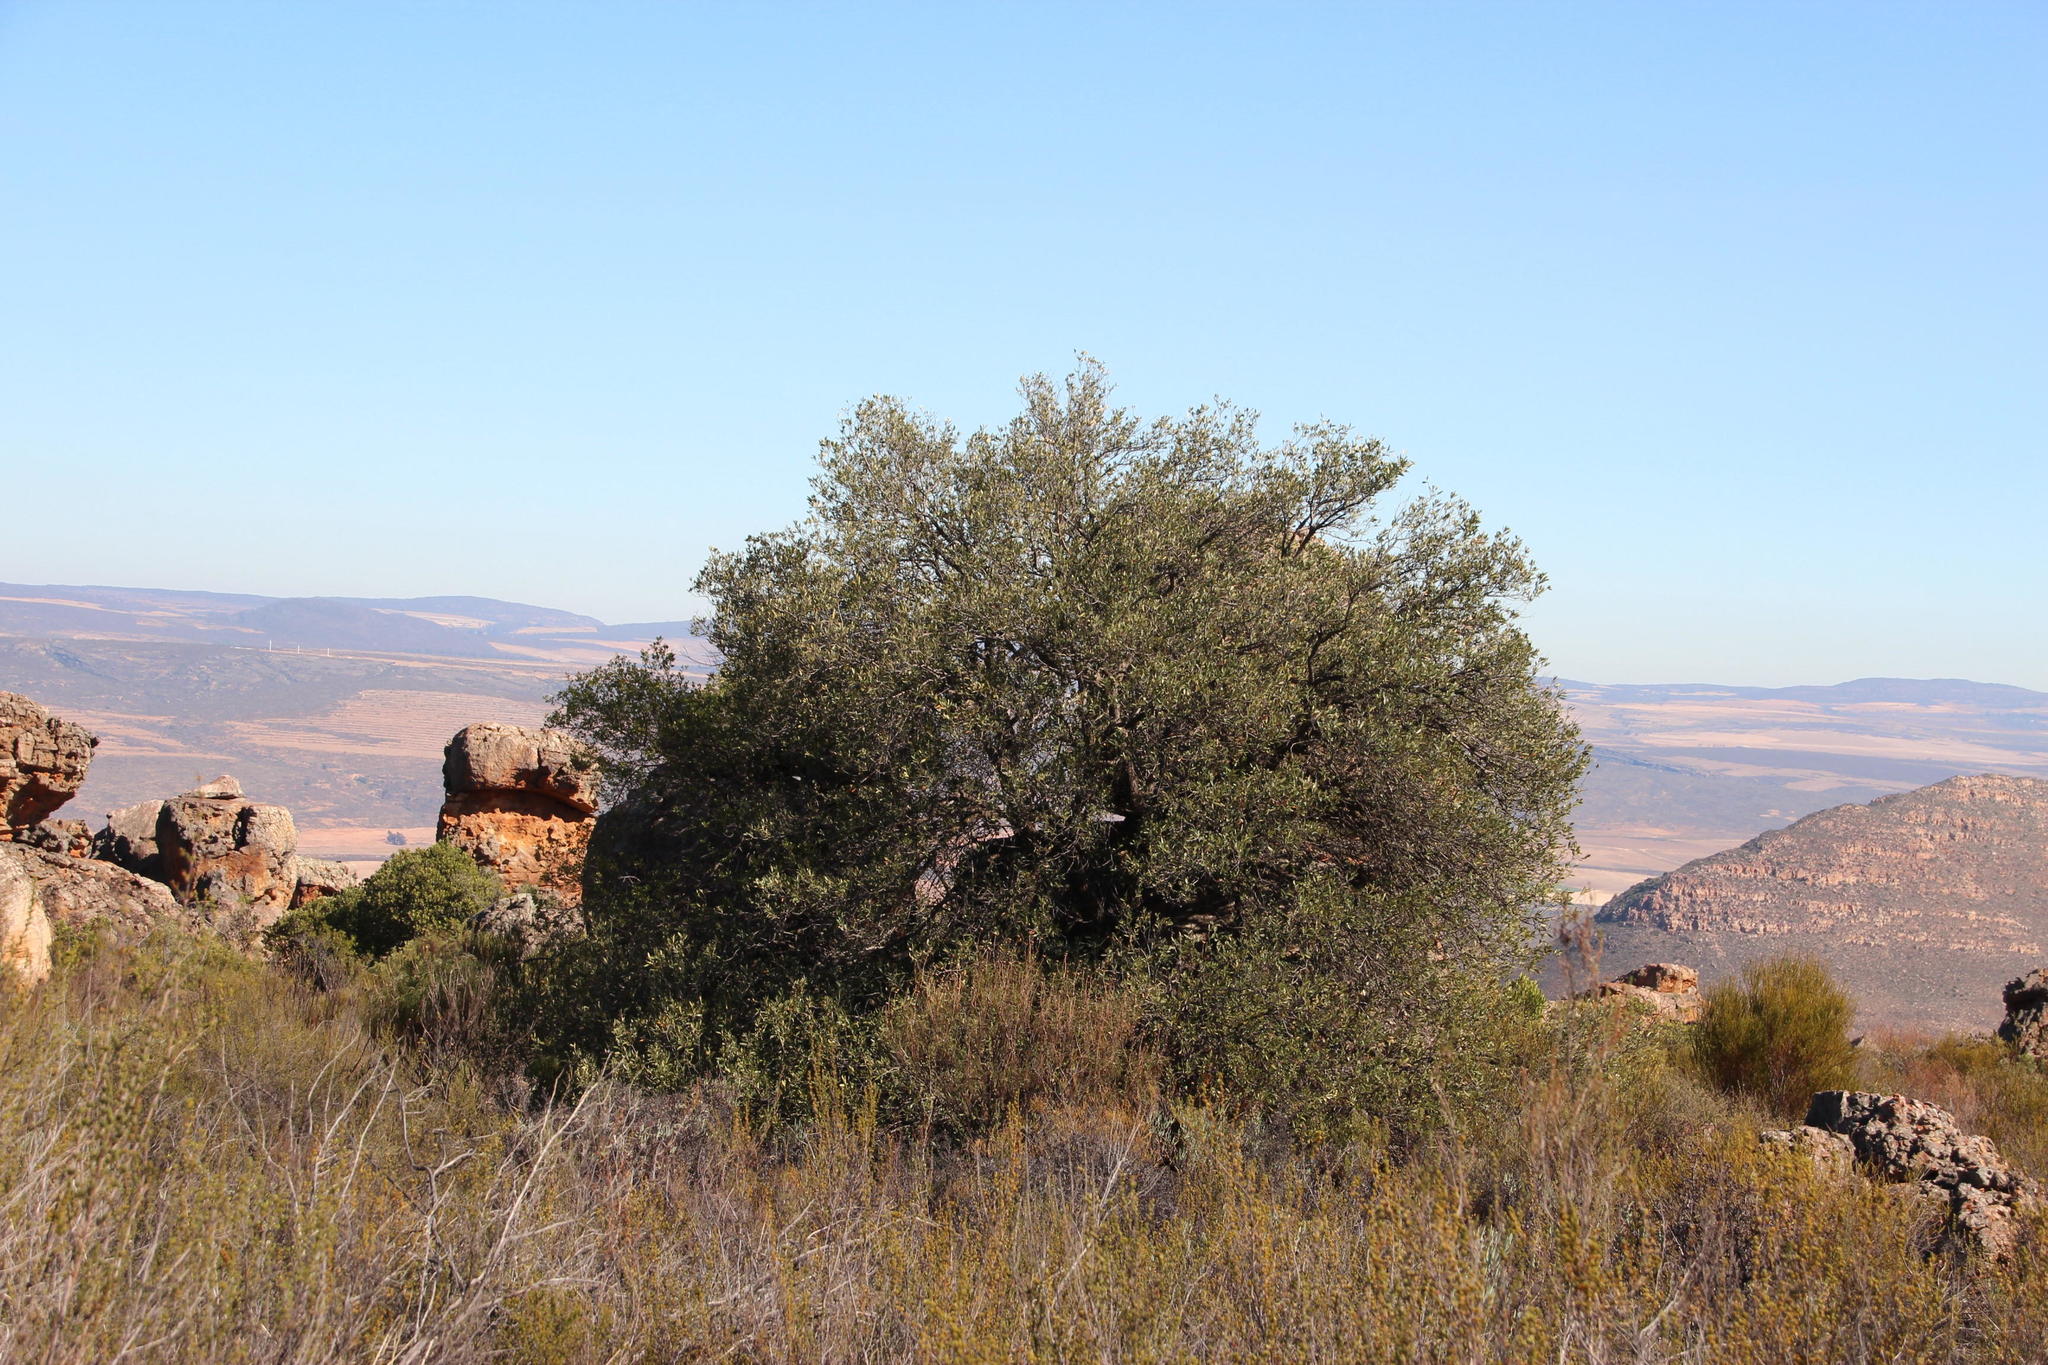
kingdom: Plantae
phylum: Tracheophyta
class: Magnoliopsida
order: Lamiales
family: Oleaceae
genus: Olea
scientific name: Olea europaea
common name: Olive
